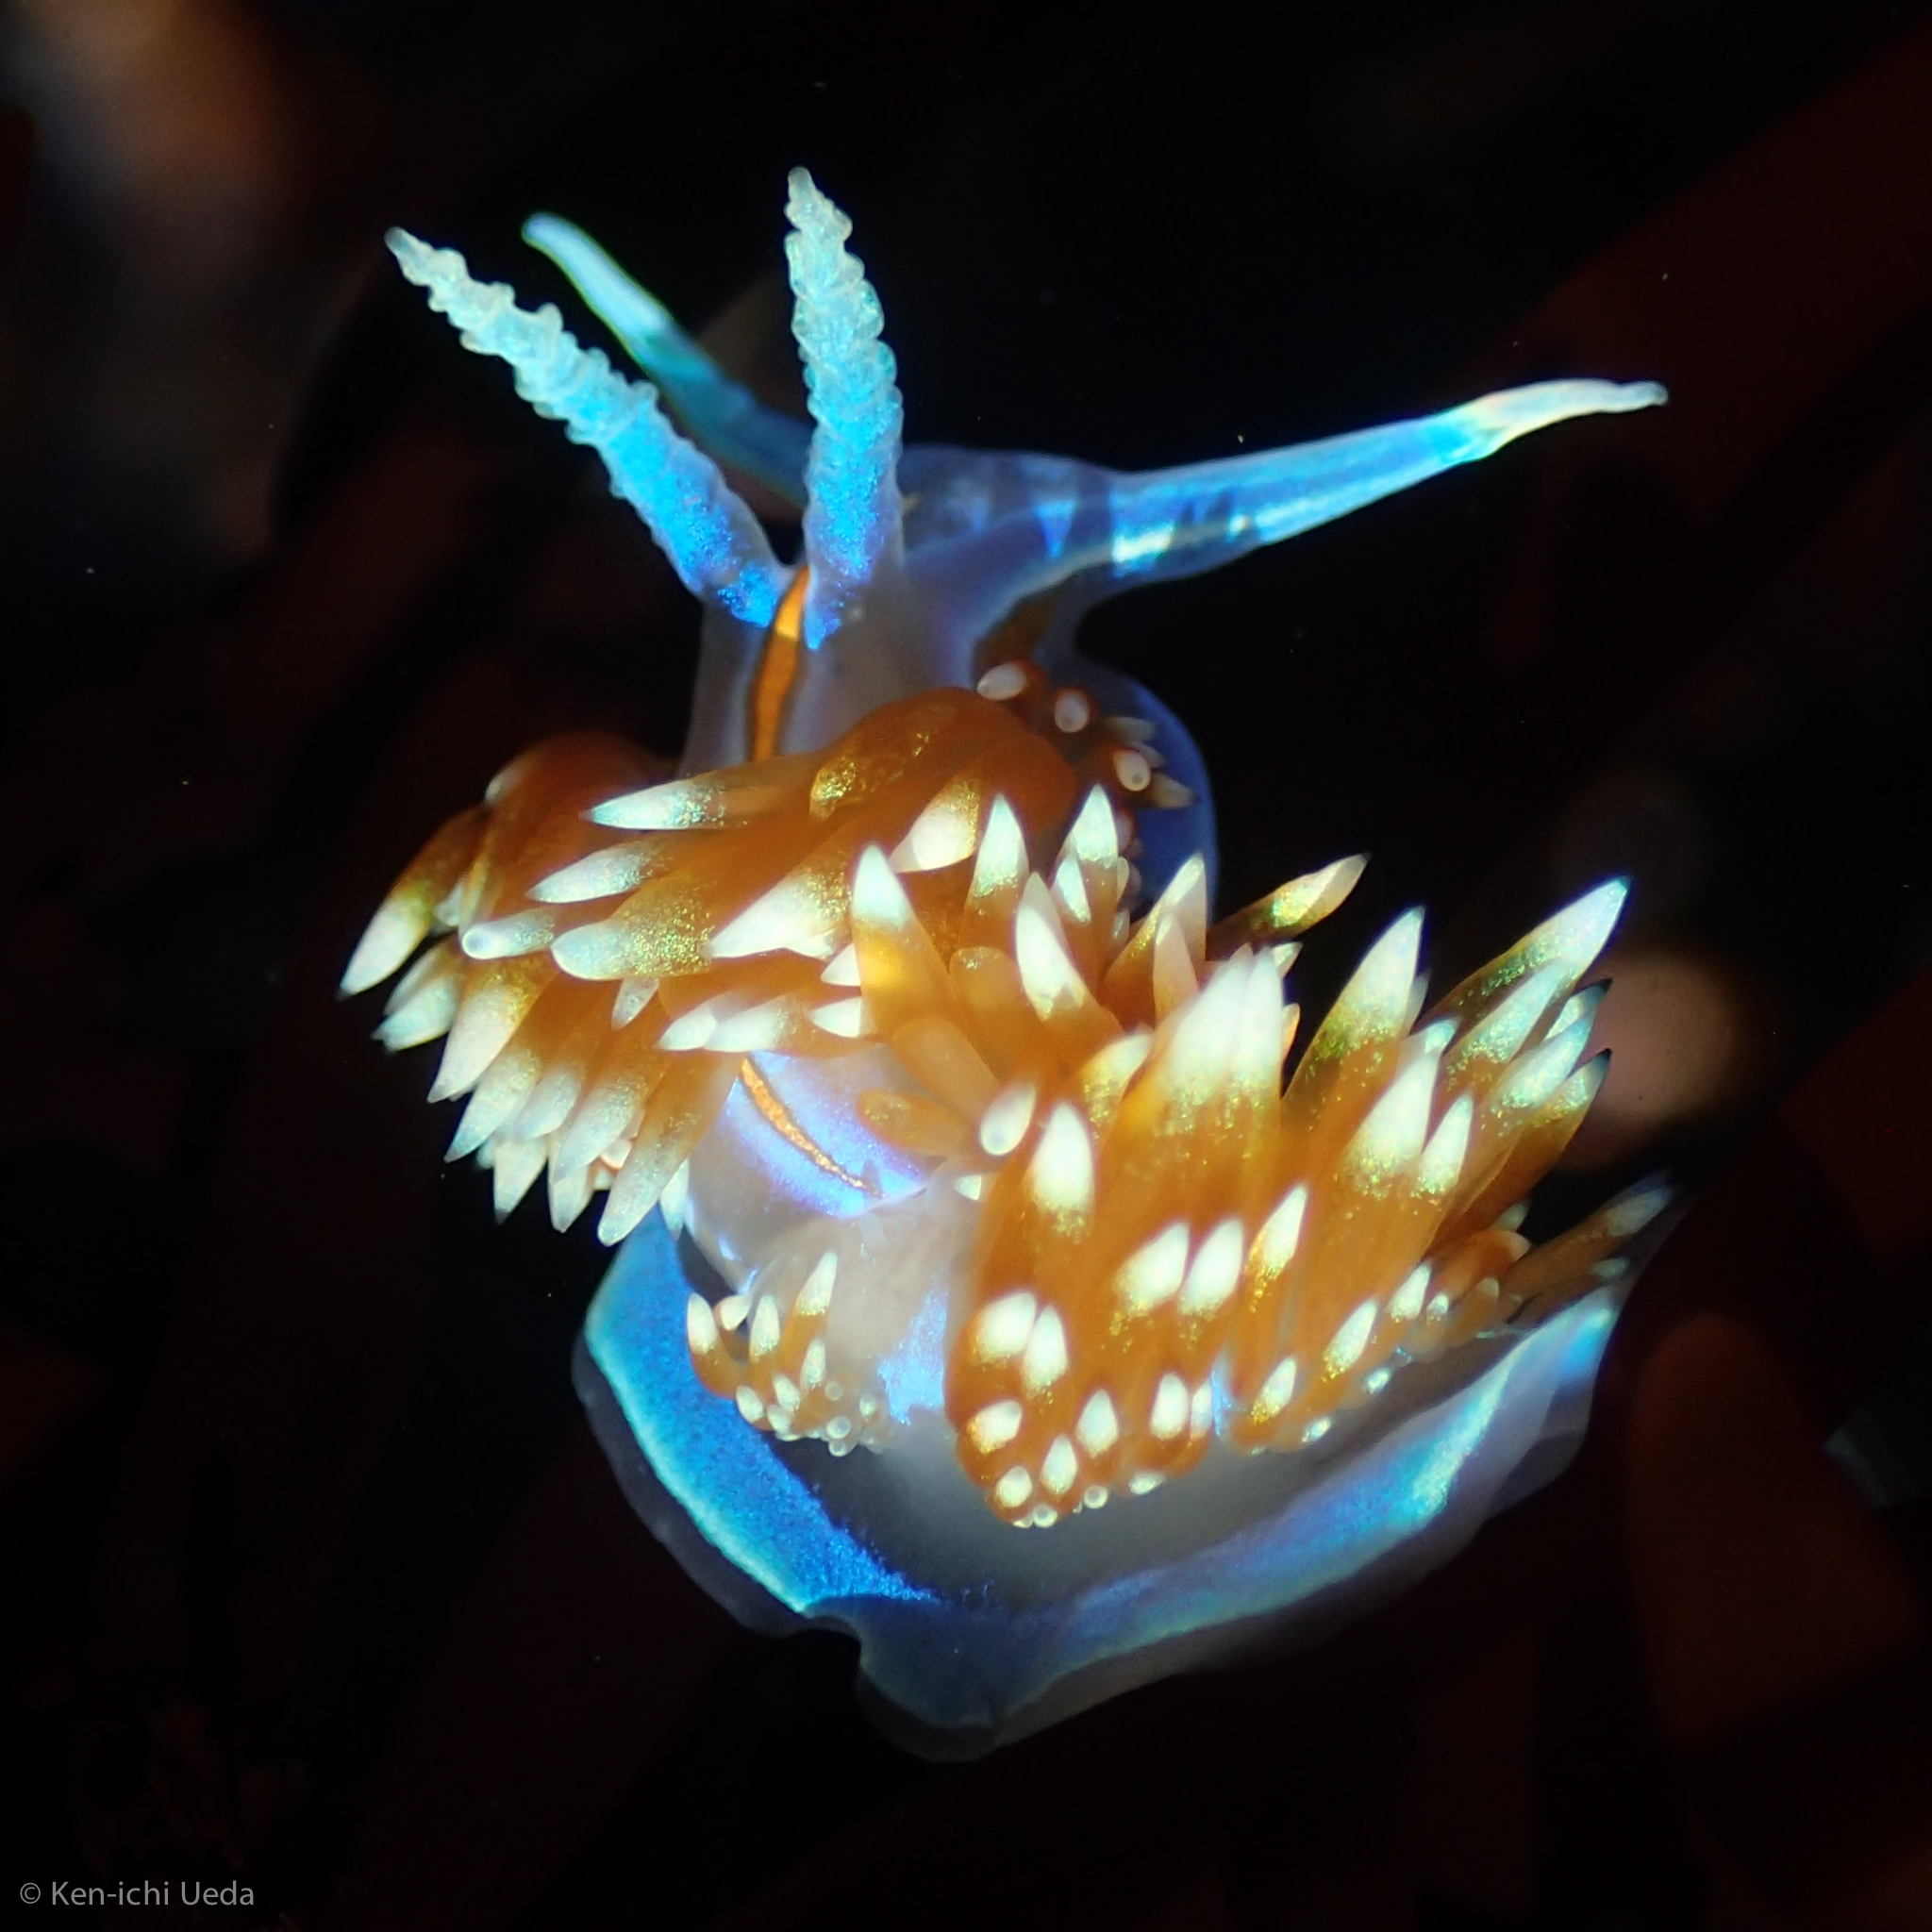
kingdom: Animalia
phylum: Mollusca
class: Gastropoda
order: Nudibranchia
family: Myrrhinidae
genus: Hermissenda
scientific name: Hermissenda opalescens
